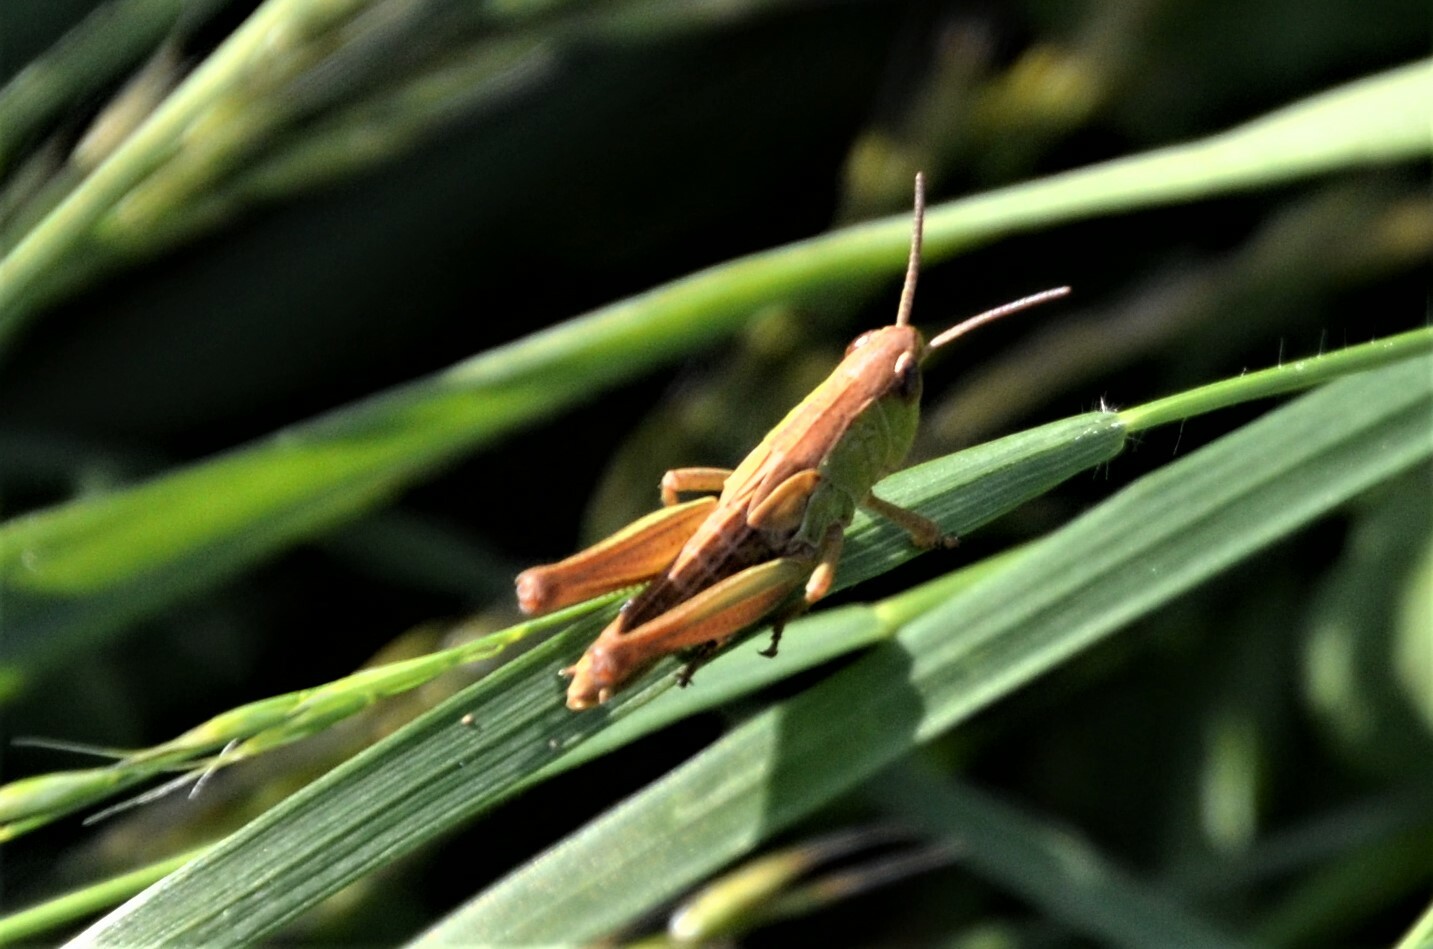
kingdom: Animalia
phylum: Arthropoda
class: Insecta
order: Orthoptera
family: Acrididae
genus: Pseudochorthippus
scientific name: Pseudochorthippus parallelus
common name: Meadow grasshopper
